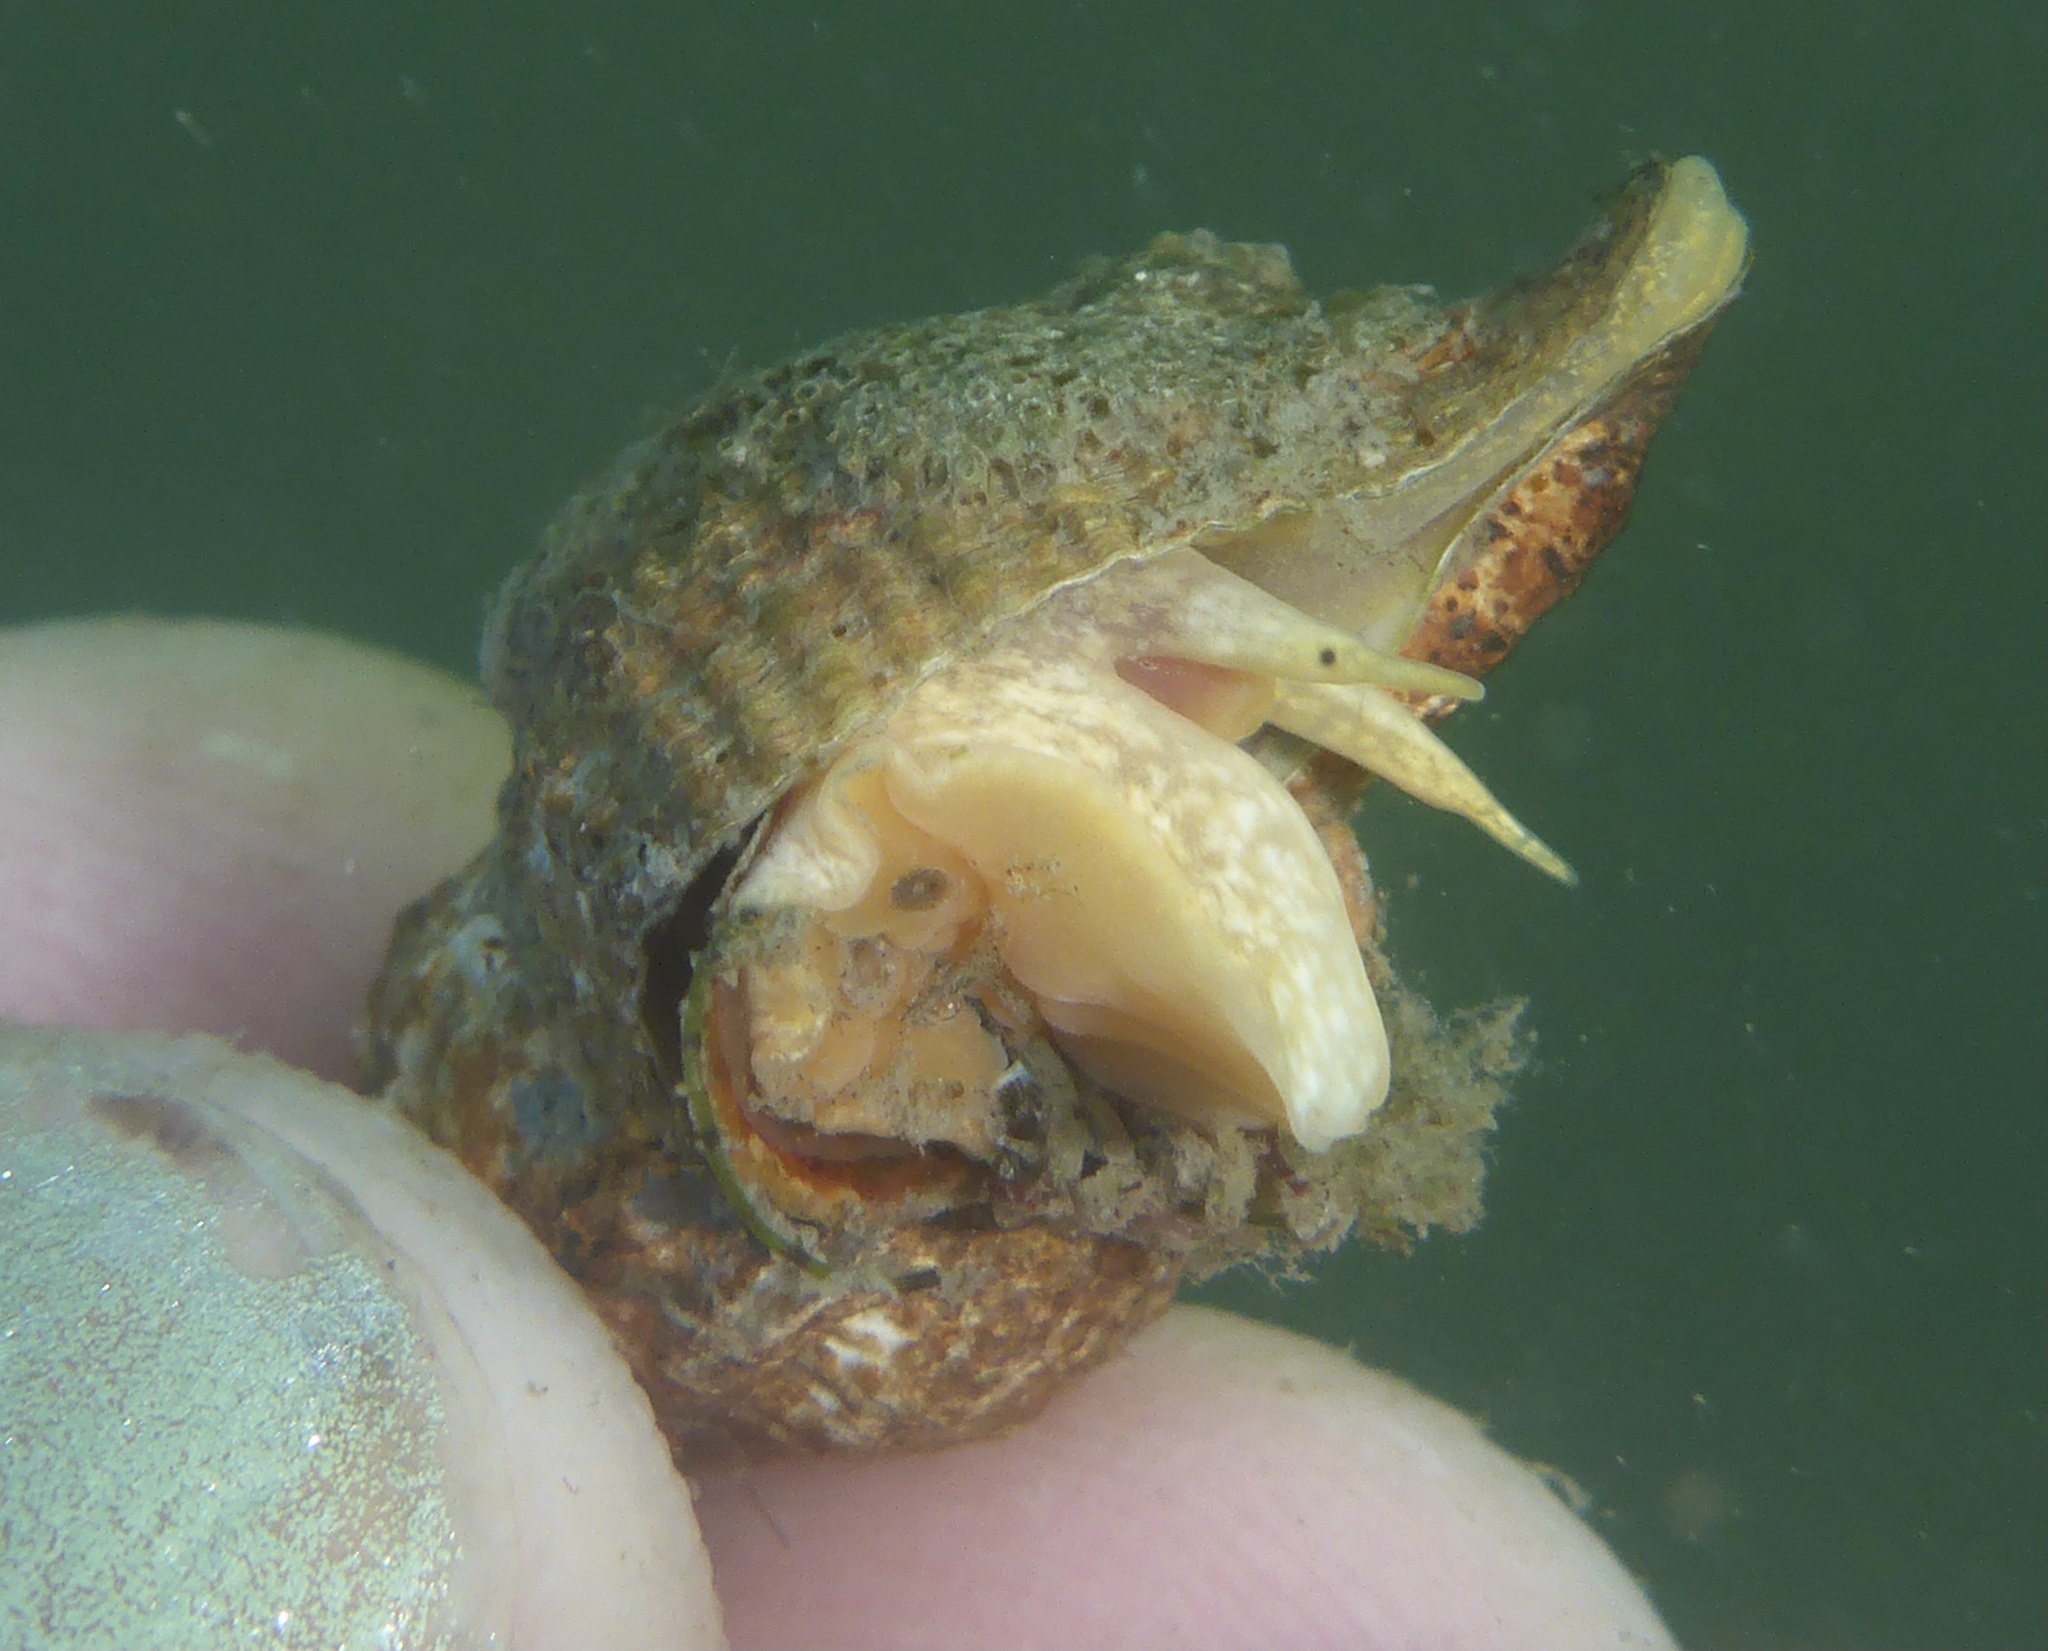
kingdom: Animalia
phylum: Mollusca
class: Gastropoda
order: Neogastropoda
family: Muricidae
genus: Urosalpinx
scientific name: Urosalpinx cinerea
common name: American sting winkle
